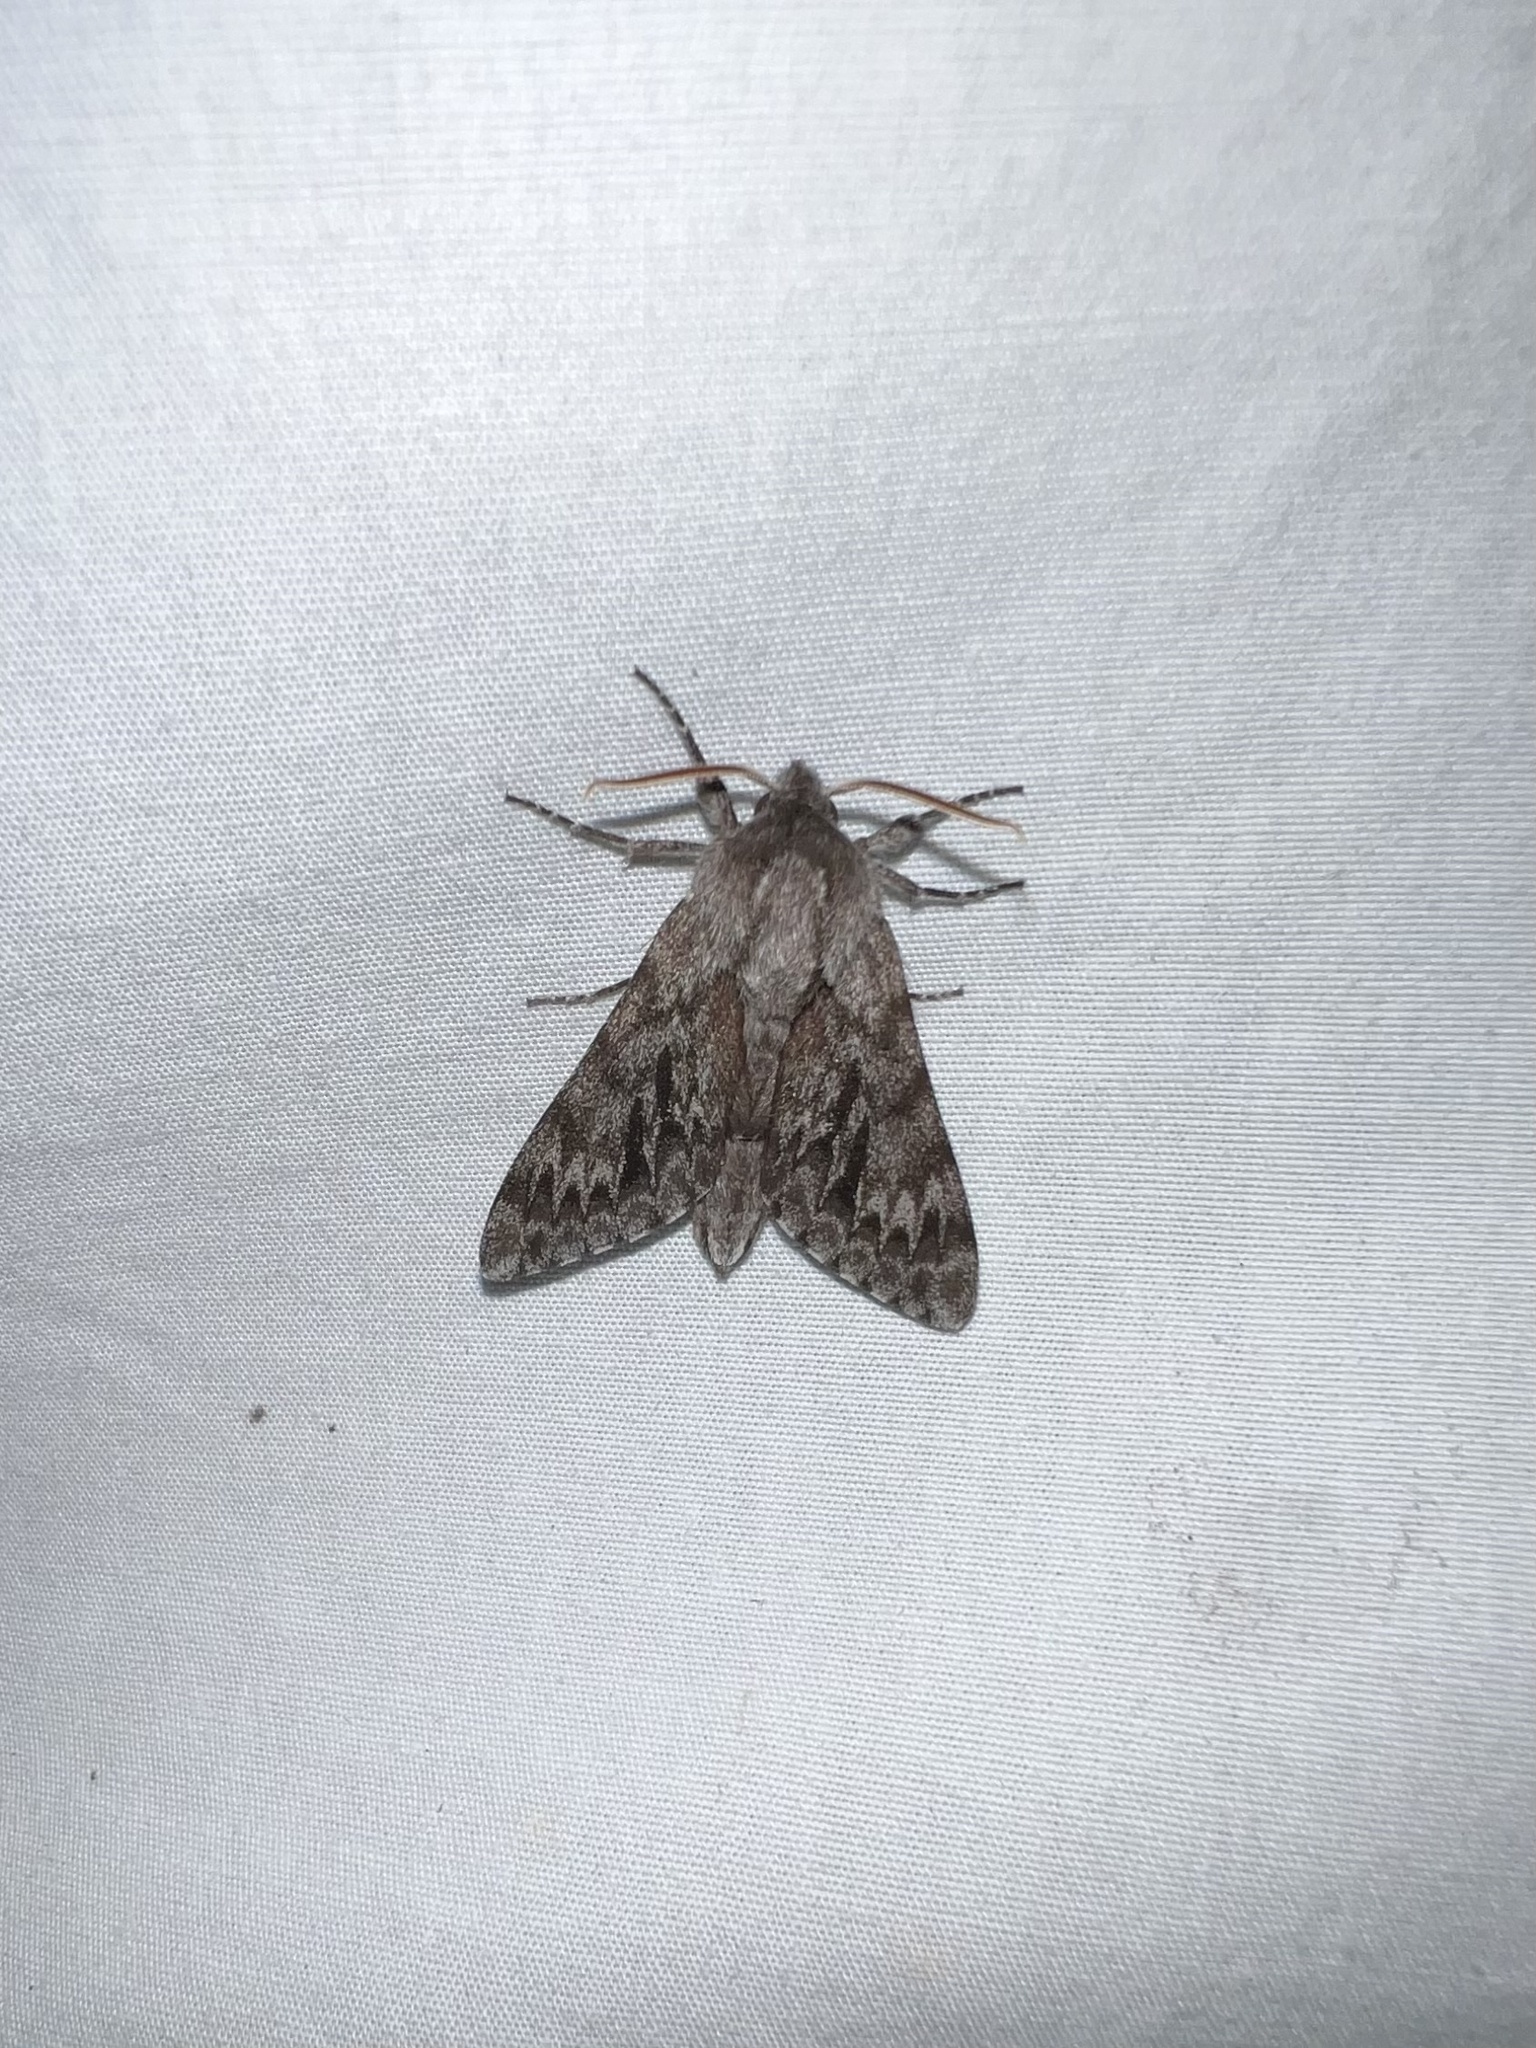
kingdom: Animalia
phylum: Arthropoda
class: Insecta
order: Lepidoptera
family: Sphingidae
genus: Lapara
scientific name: Lapara bombycoides
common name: Northern pine sphinx
